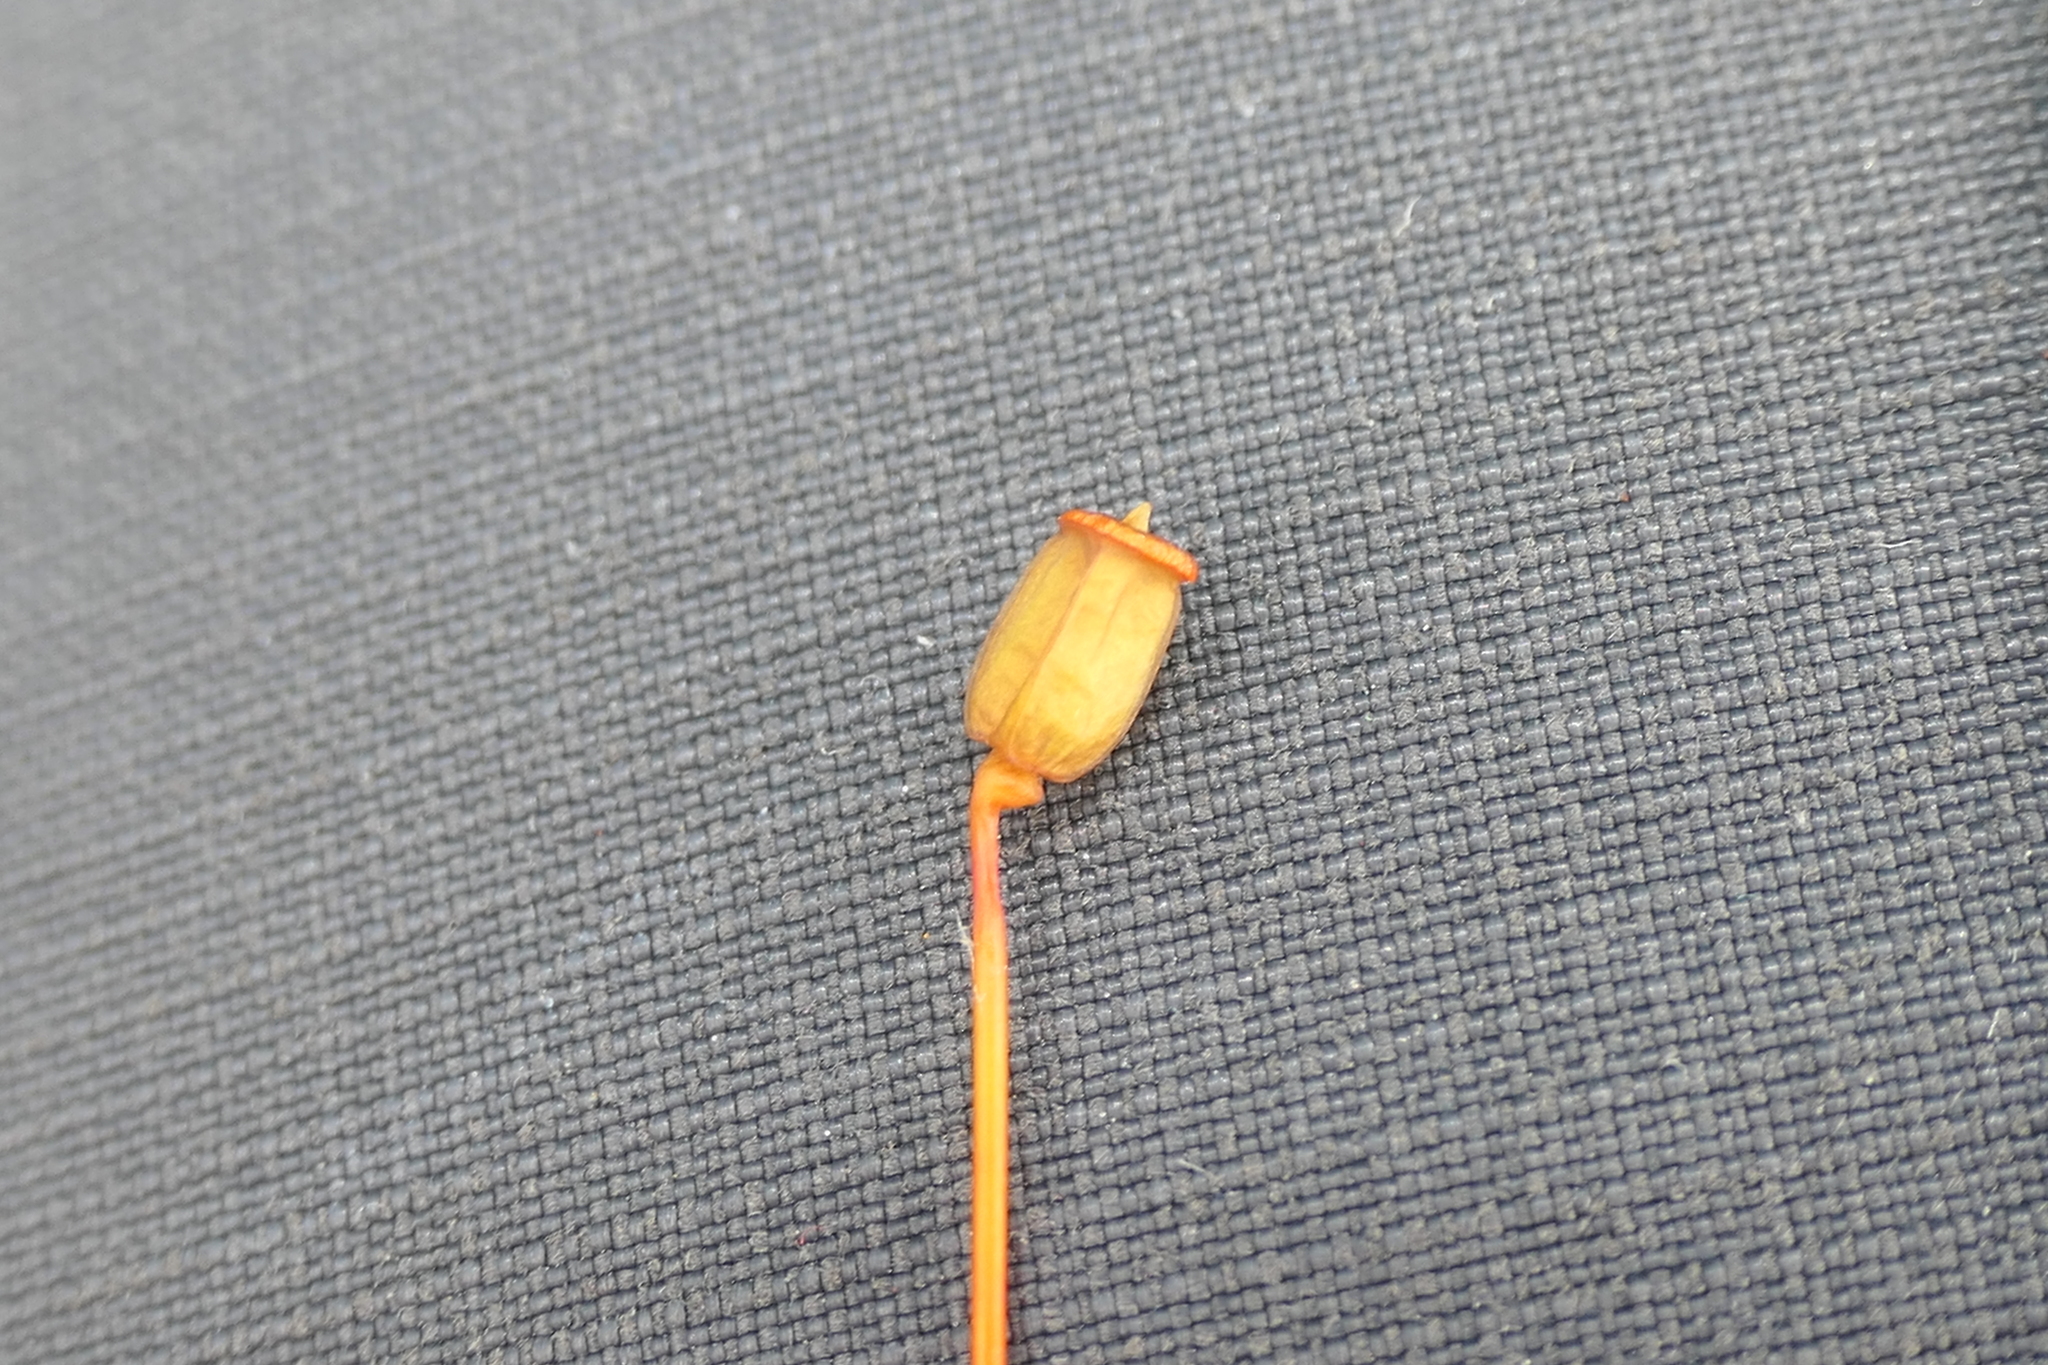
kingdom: Plantae
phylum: Bryophyta
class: Polytrichopsida
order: Polytrichales
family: Polytrichaceae
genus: Polytrichum
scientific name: Polytrichum commune
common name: Common haircap
